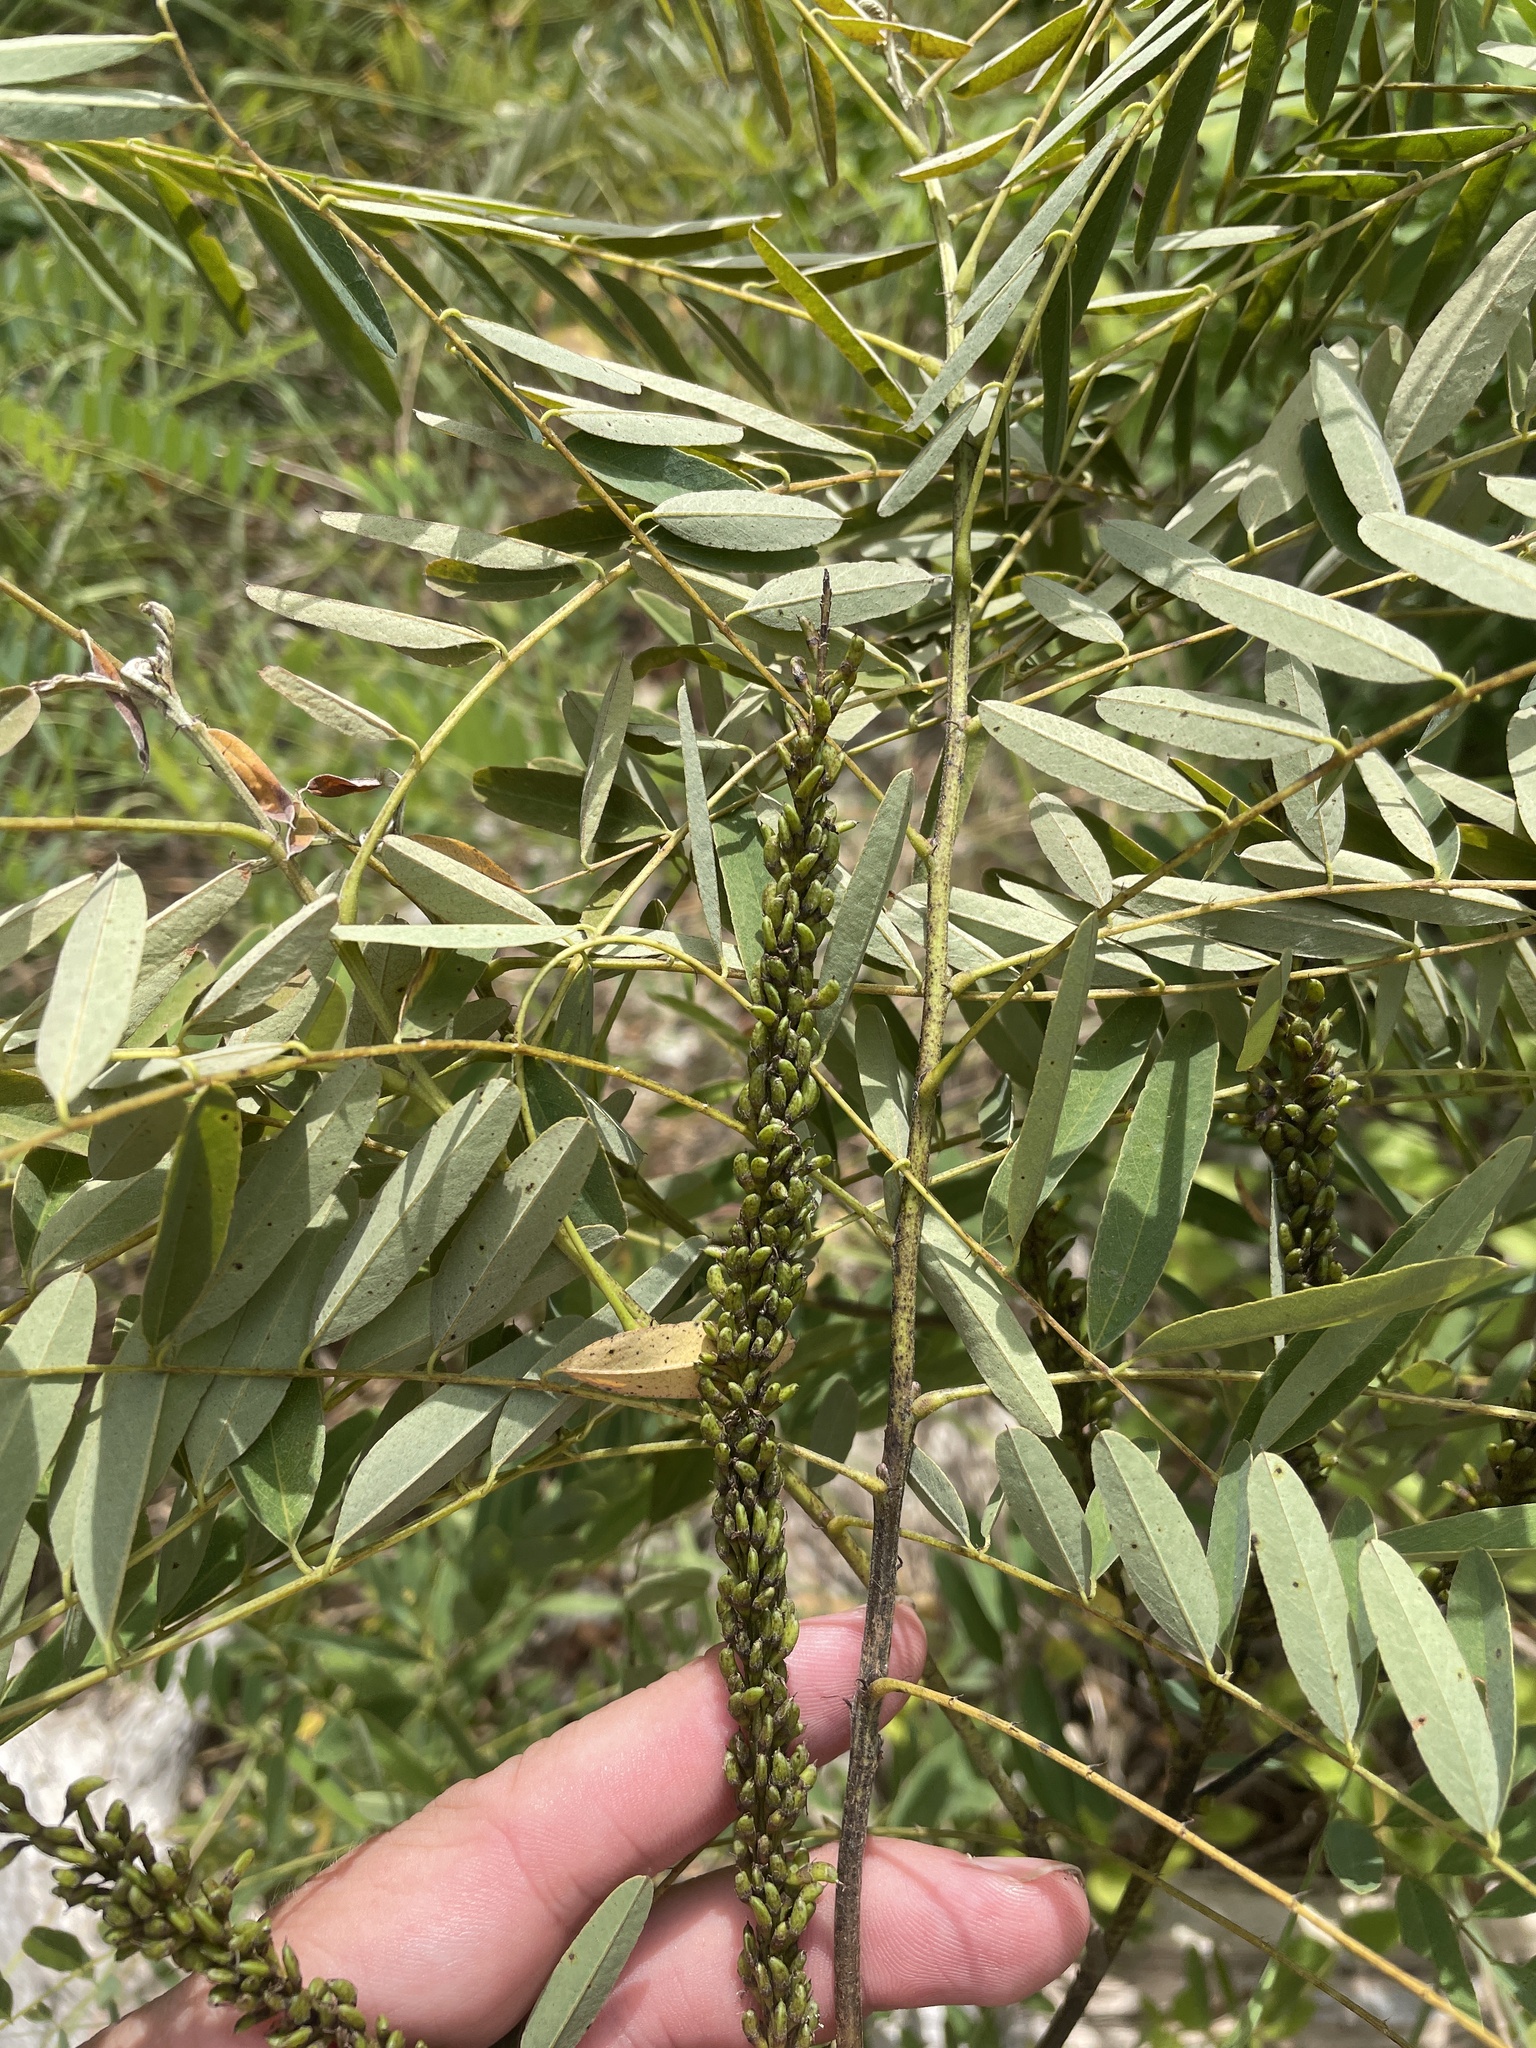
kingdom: Plantae
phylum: Tracheophyta
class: Magnoliopsida
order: Fabales
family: Fabaceae
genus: Amorpha
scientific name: Amorpha fruticosa
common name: False indigo
